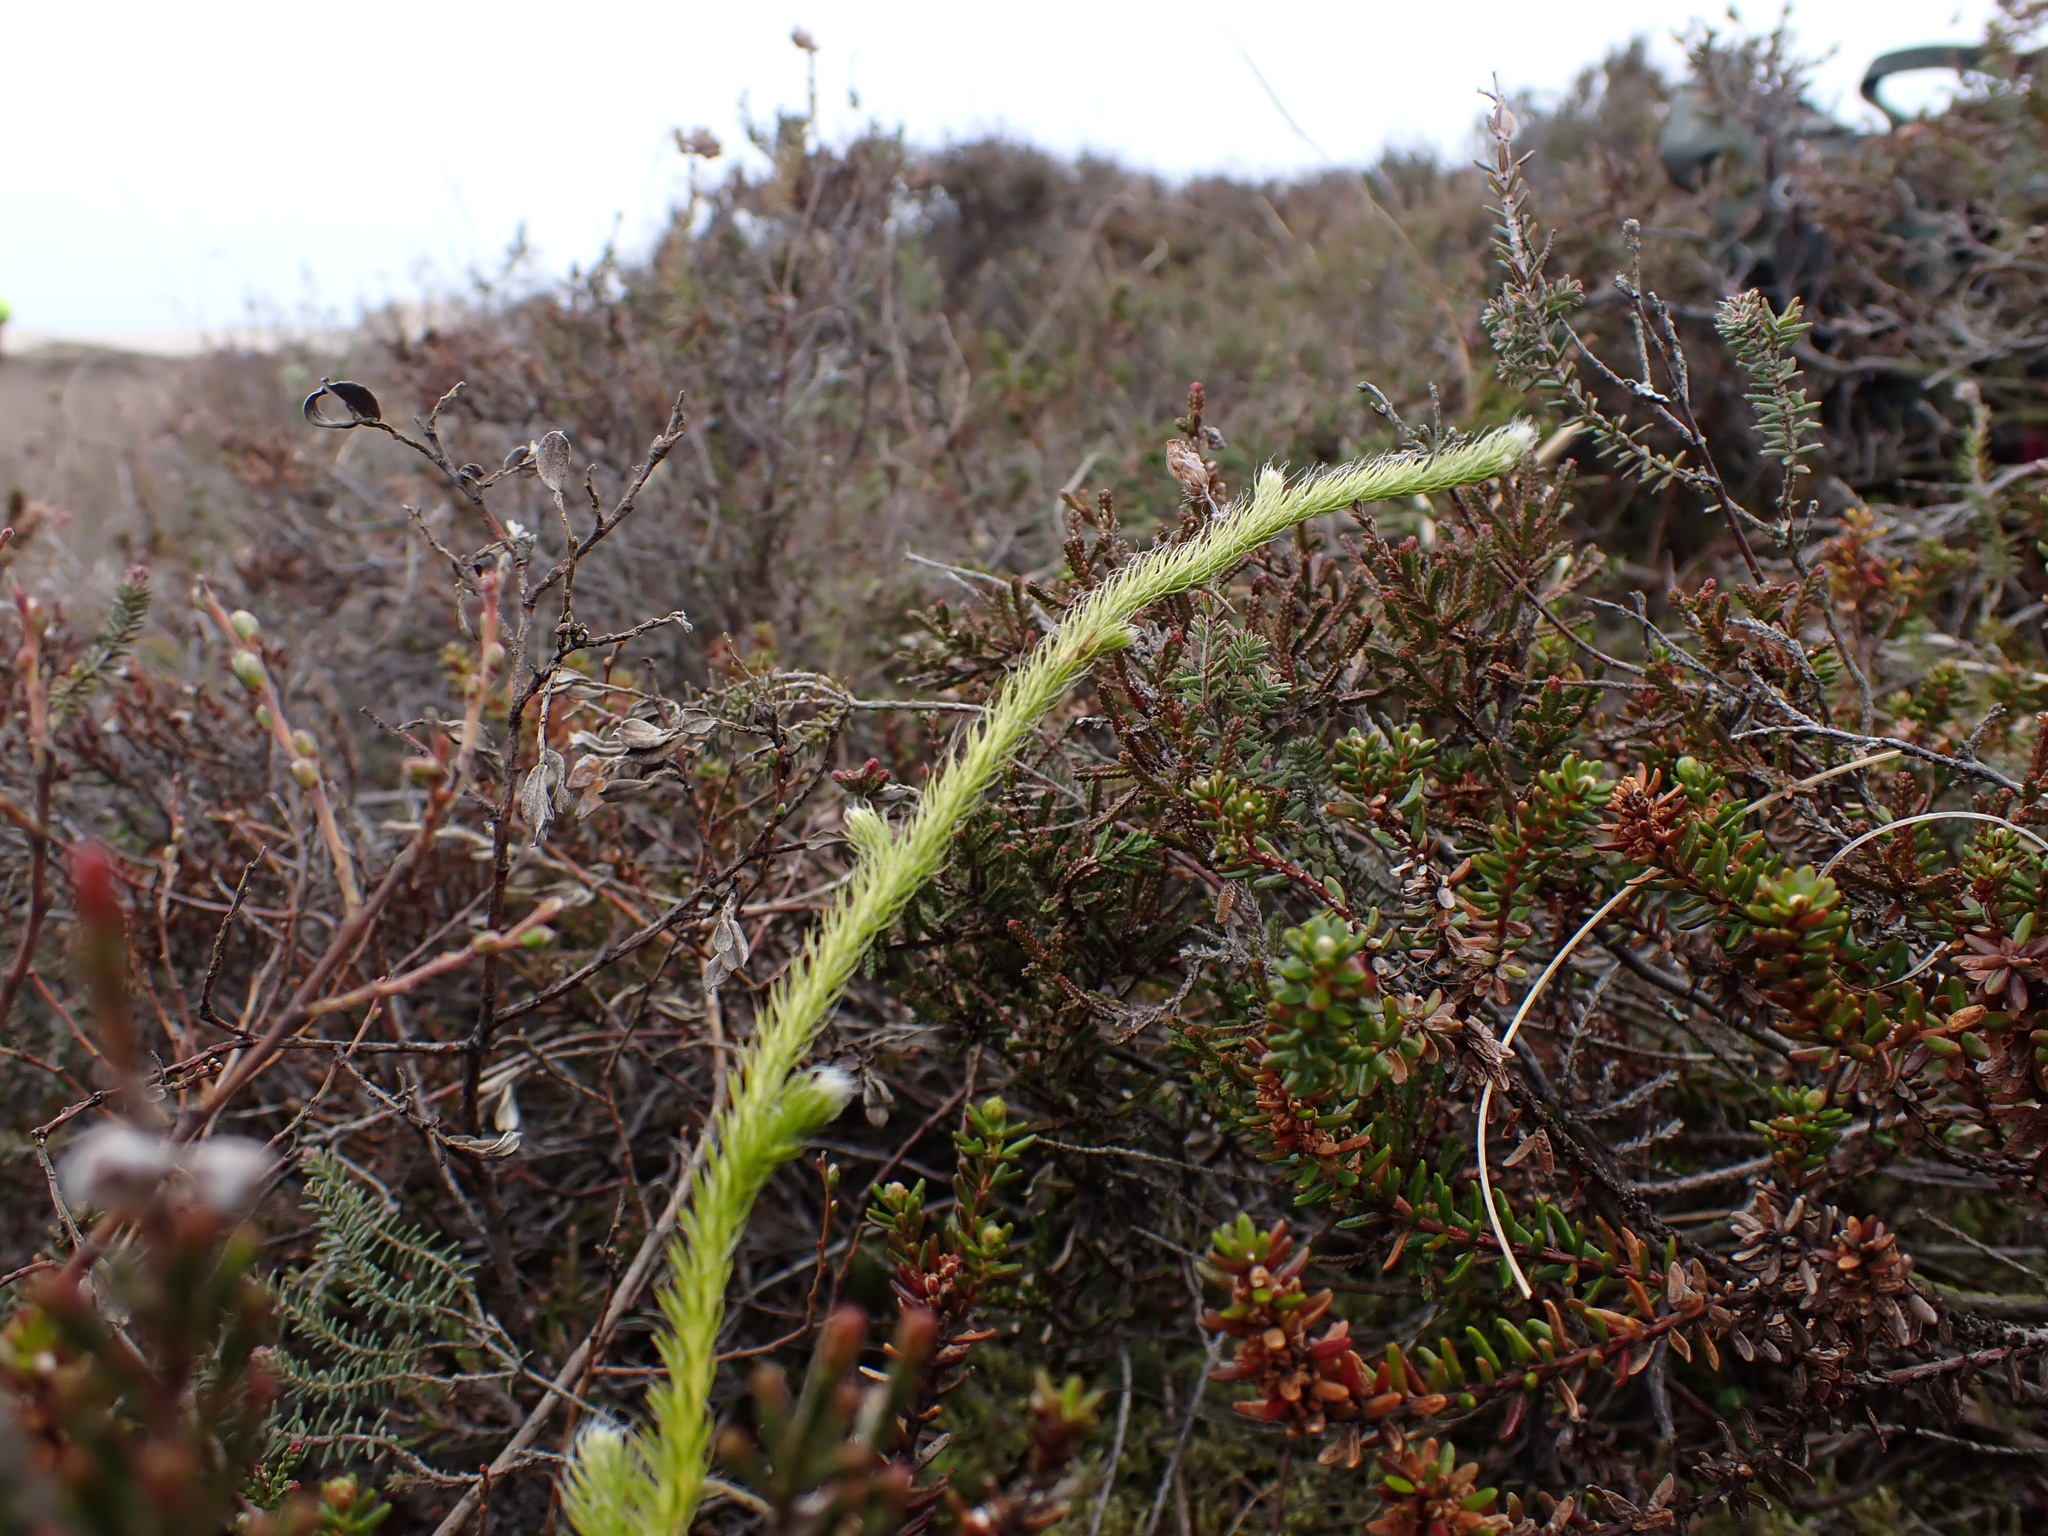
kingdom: Plantae
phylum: Tracheophyta
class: Lycopodiopsida
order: Lycopodiales
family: Lycopodiaceae
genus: Lycopodium
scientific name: Lycopodium clavatum
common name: Stag's-horn clubmoss
